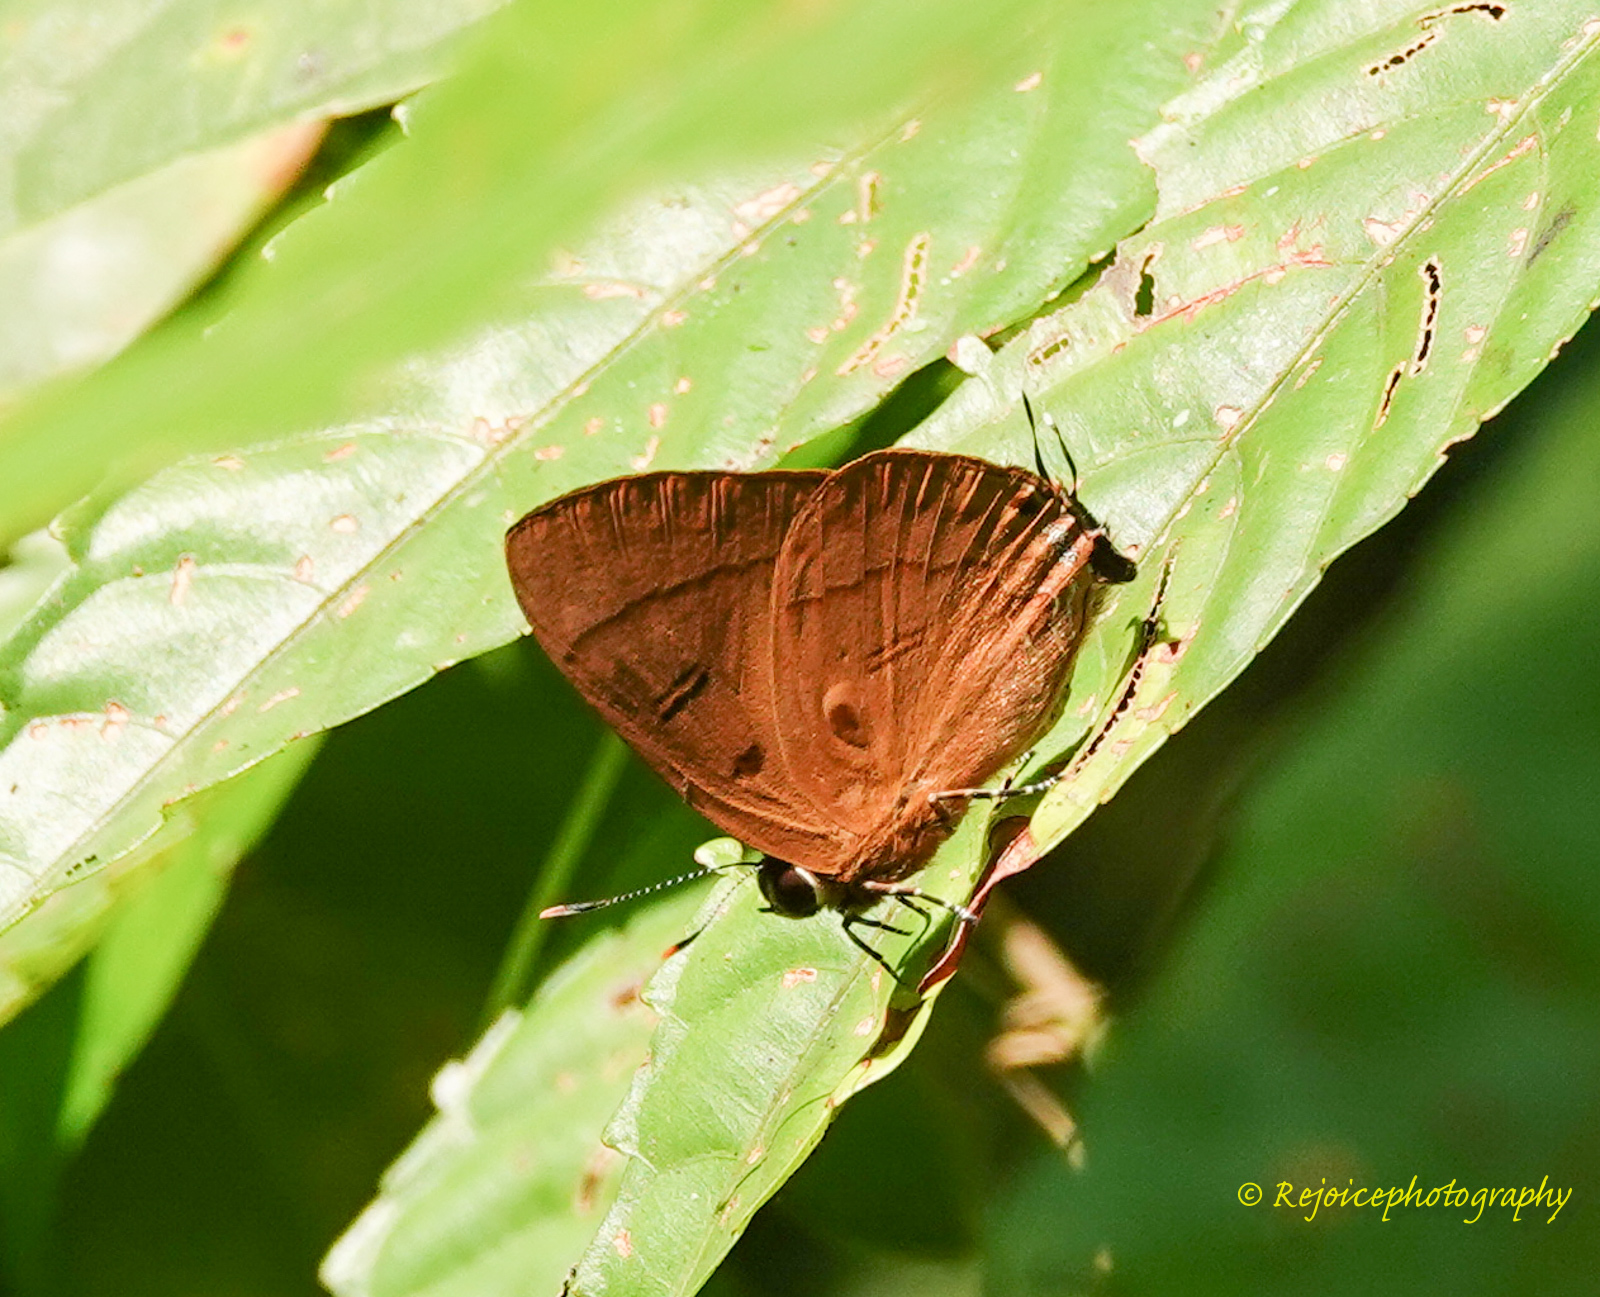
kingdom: Animalia
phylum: Arthropoda
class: Insecta
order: Lepidoptera
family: Lycaenidae
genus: Rapala
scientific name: Rapala pheretima
